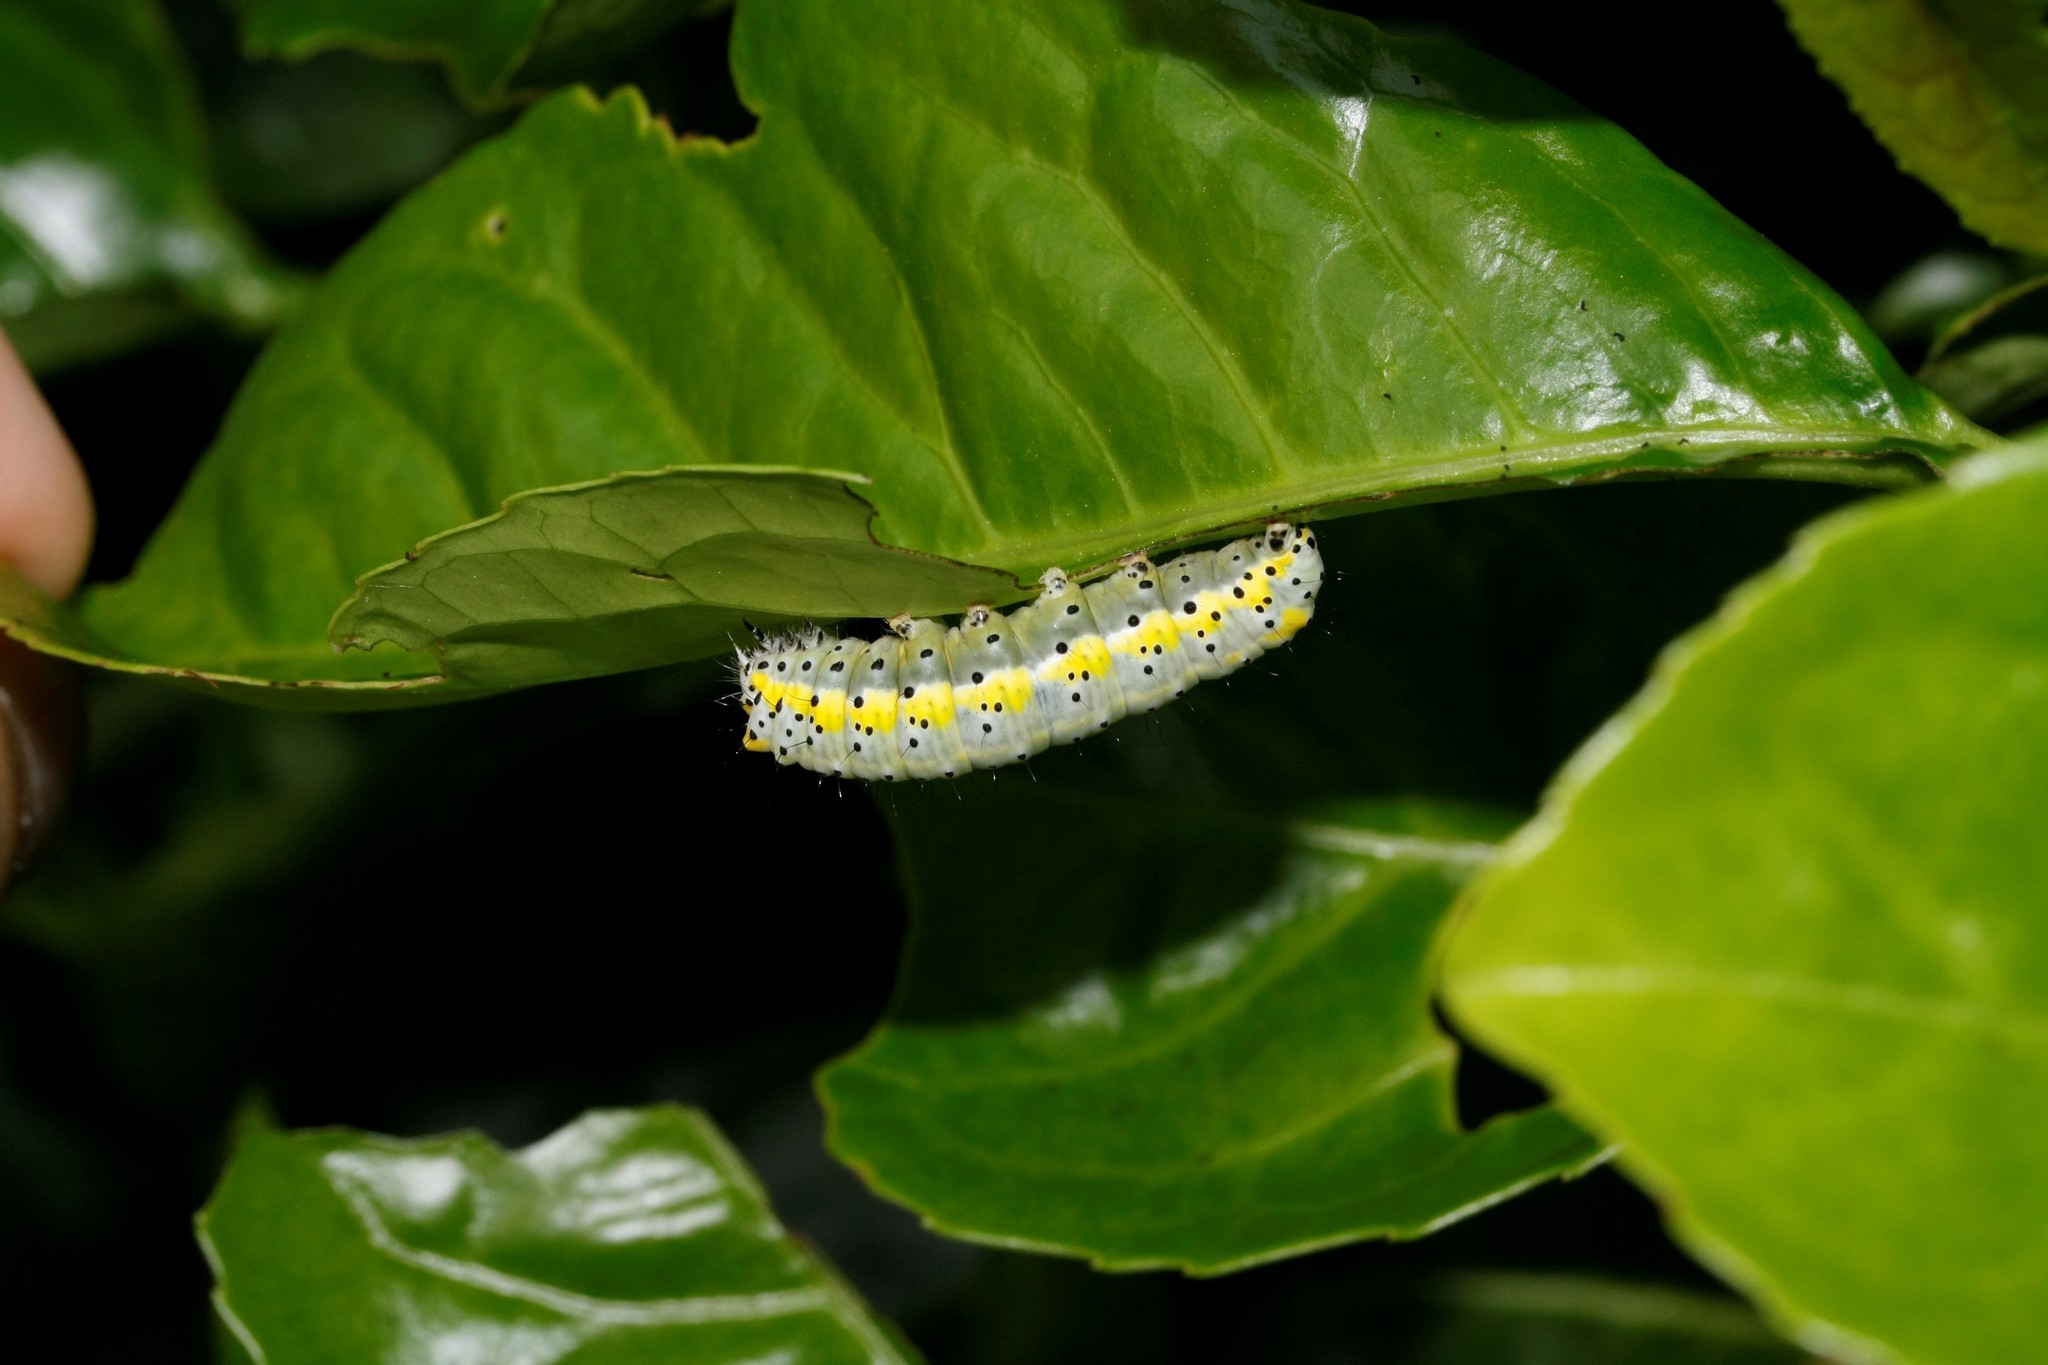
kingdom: Animalia
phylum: Arthropoda
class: Insecta
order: Lepidoptera
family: Noctuidae
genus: Diloba
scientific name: Diloba caeruleocephala
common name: Figure of eight
